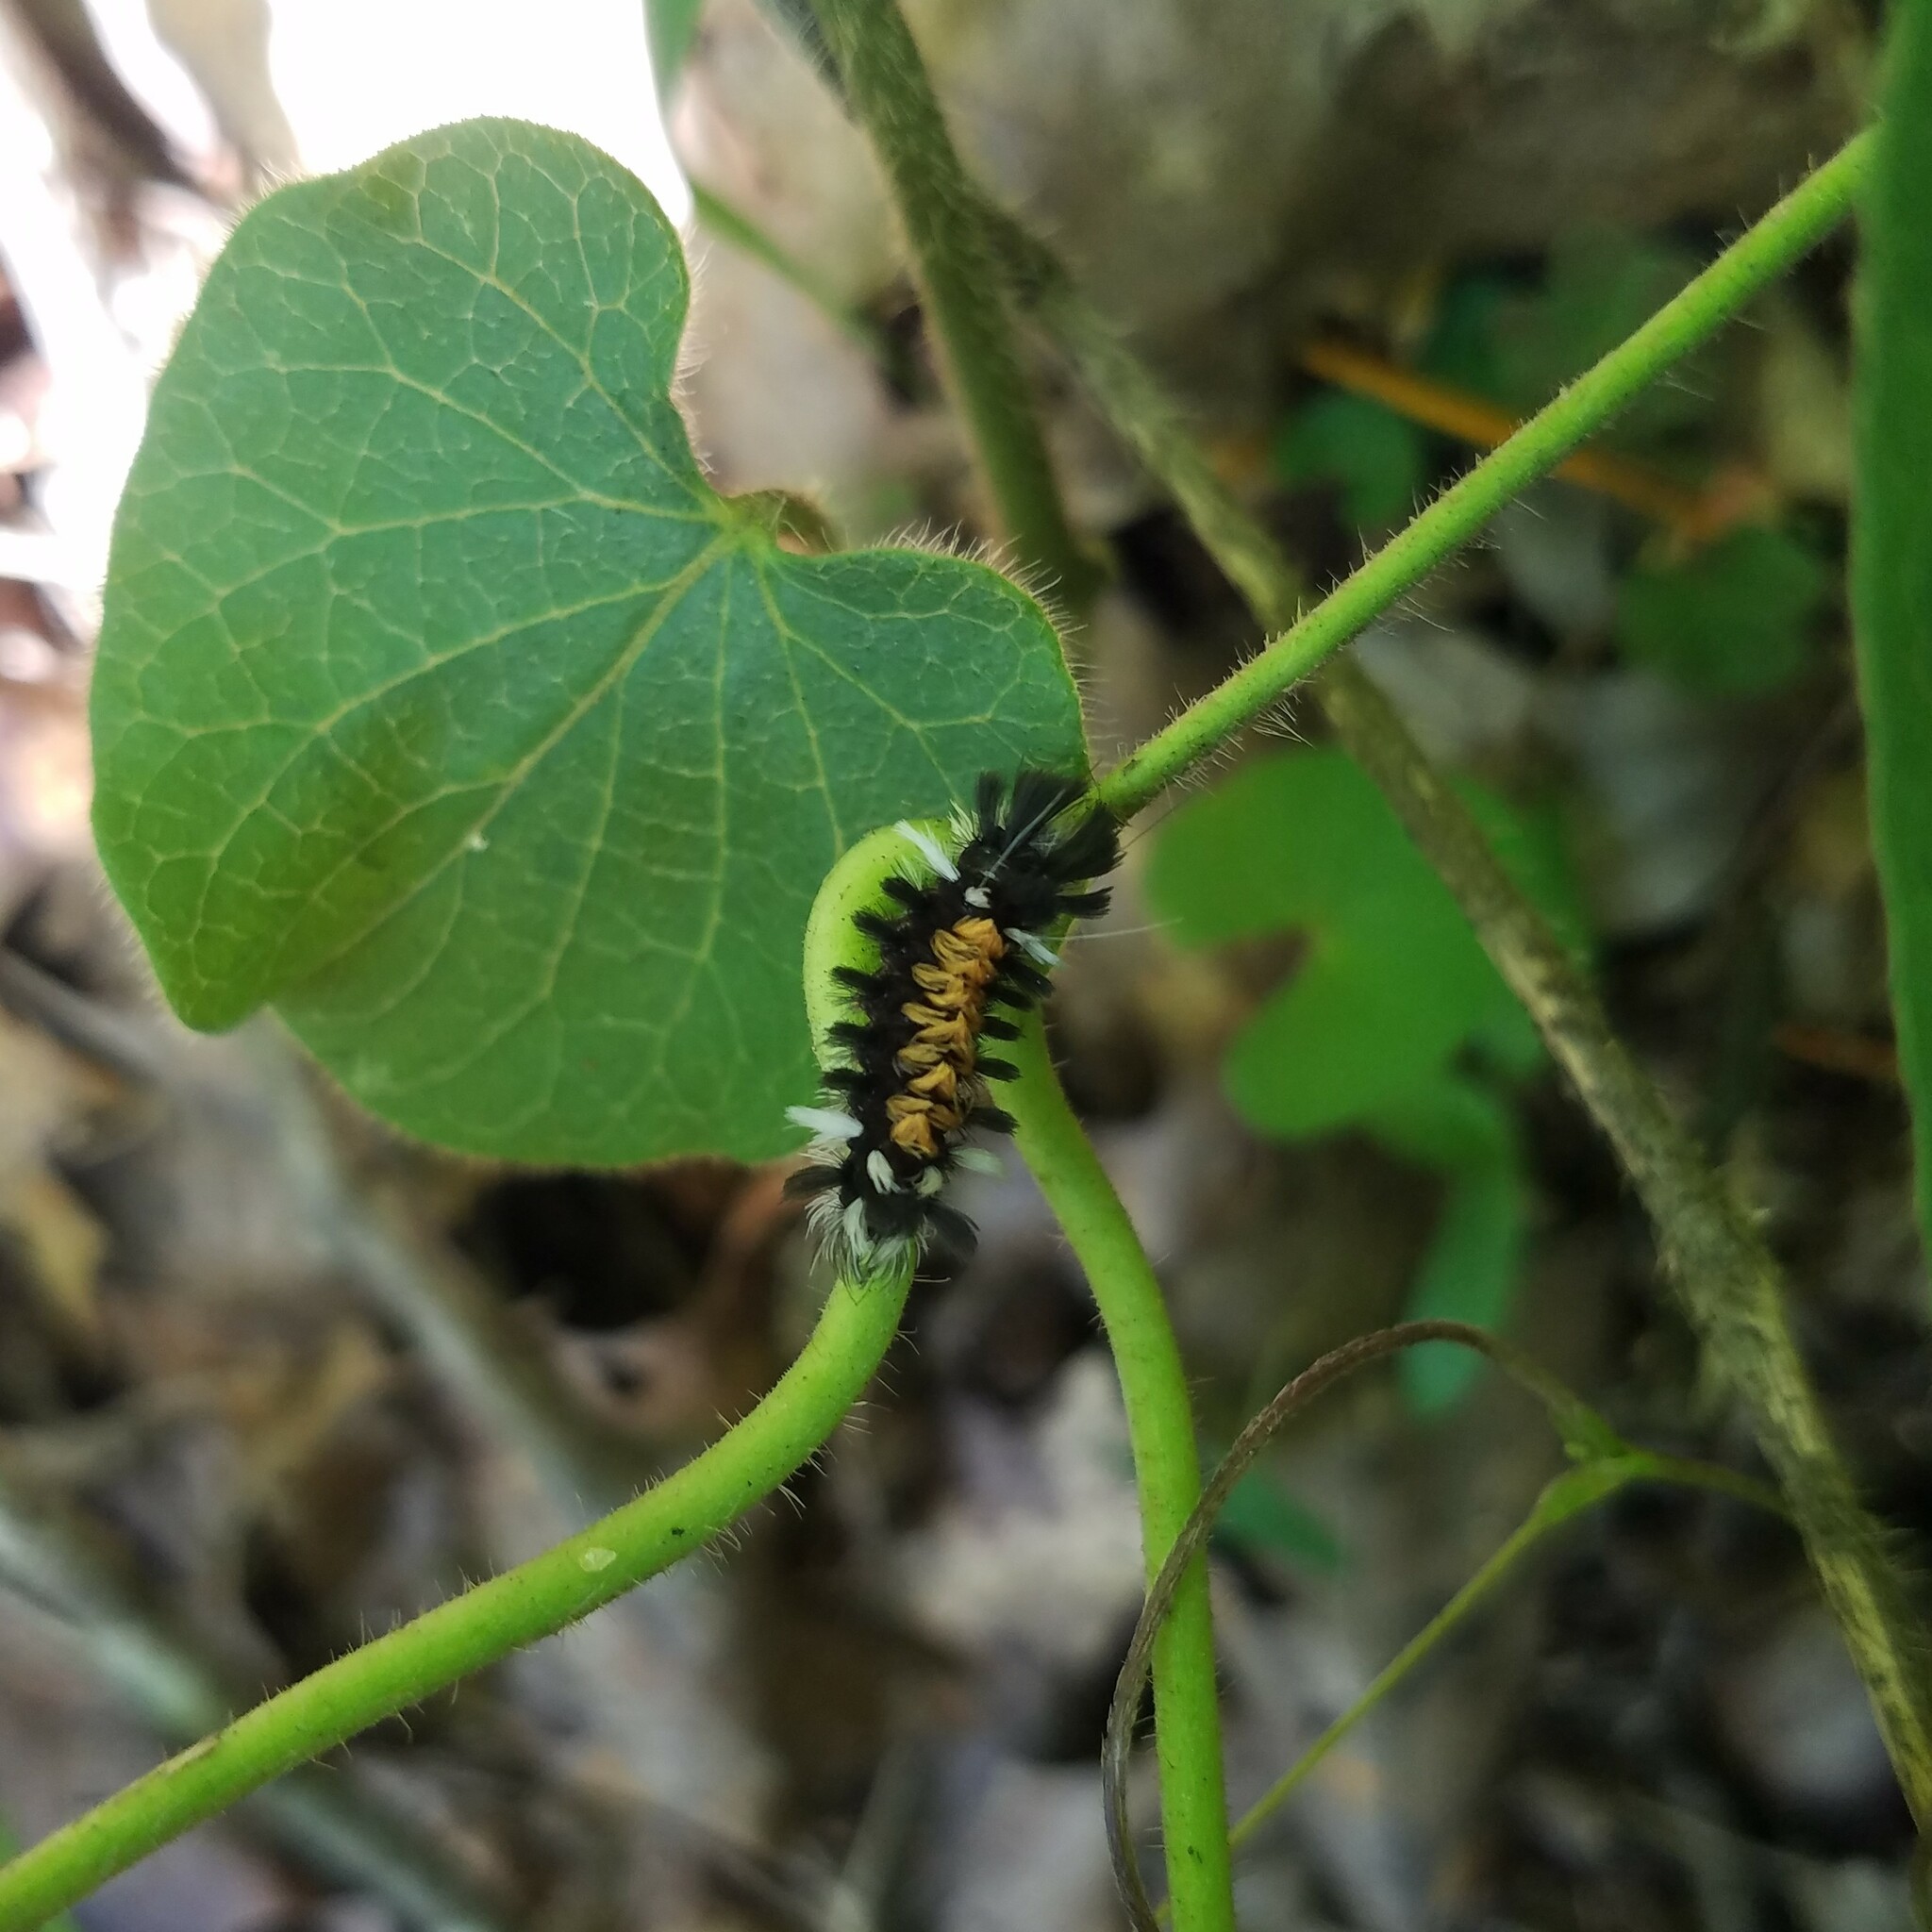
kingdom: Animalia
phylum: Arthropoda
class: Insecta
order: Lepidoptera
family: Erebidae
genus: Euchaetes
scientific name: Euchaetes egle
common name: Milkweed tussock moth
